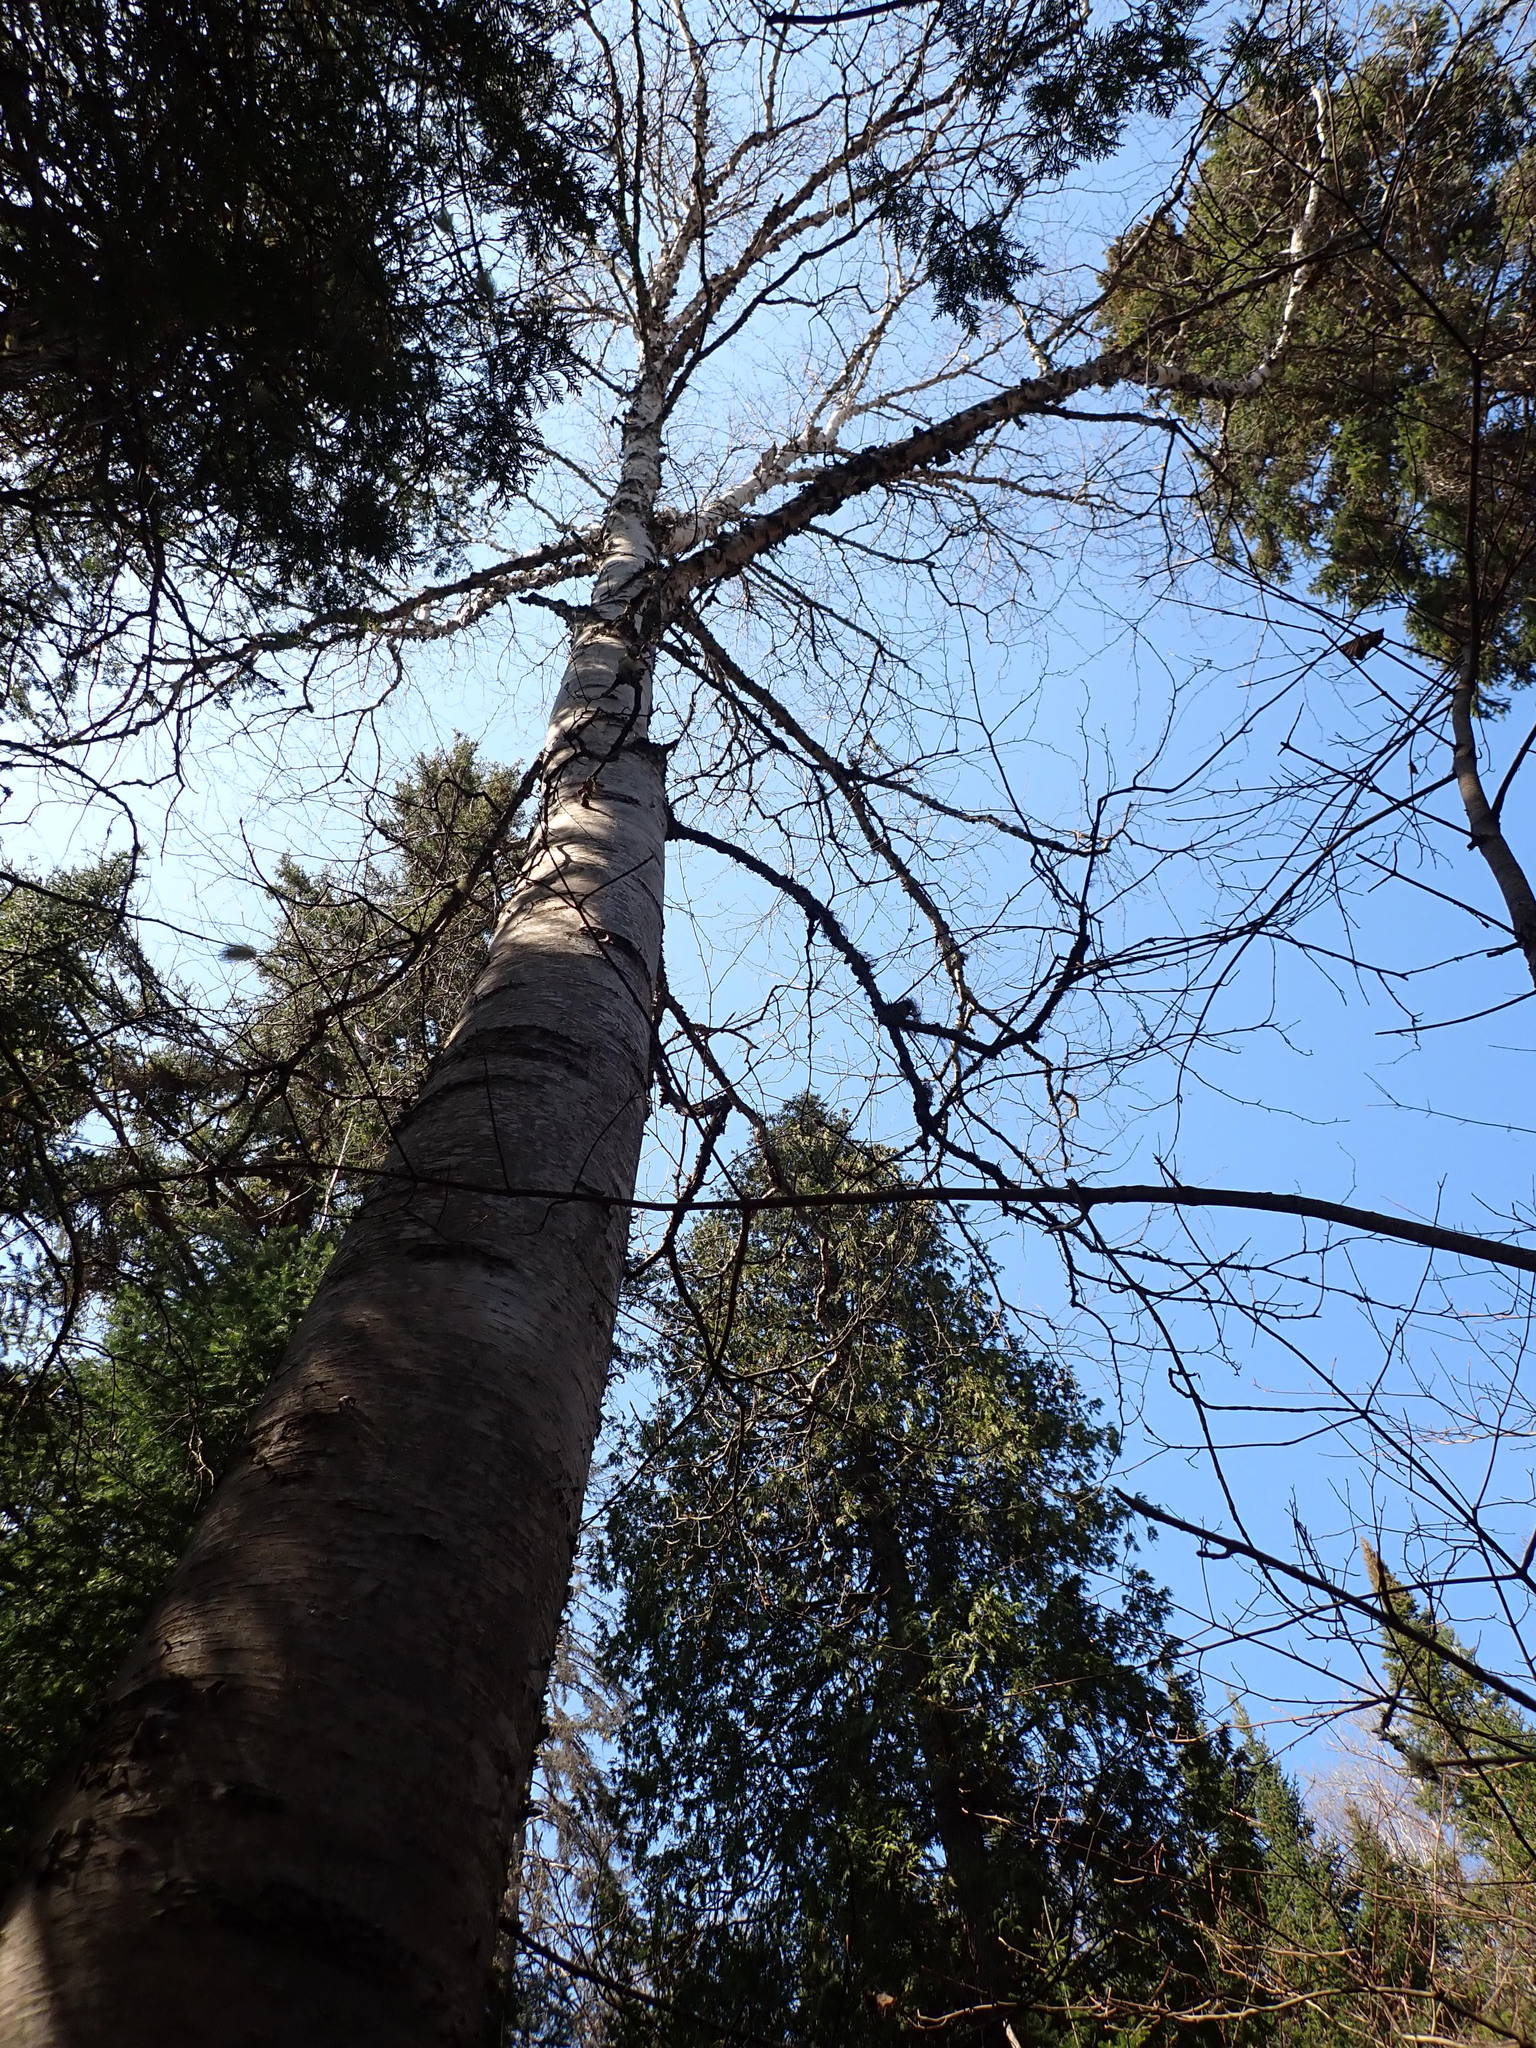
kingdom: Plantae
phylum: Tracheophyta
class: Magnoliopsida
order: Fagales
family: Betulaceae
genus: Betula
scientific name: Betula papyrifera
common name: Paper birch
